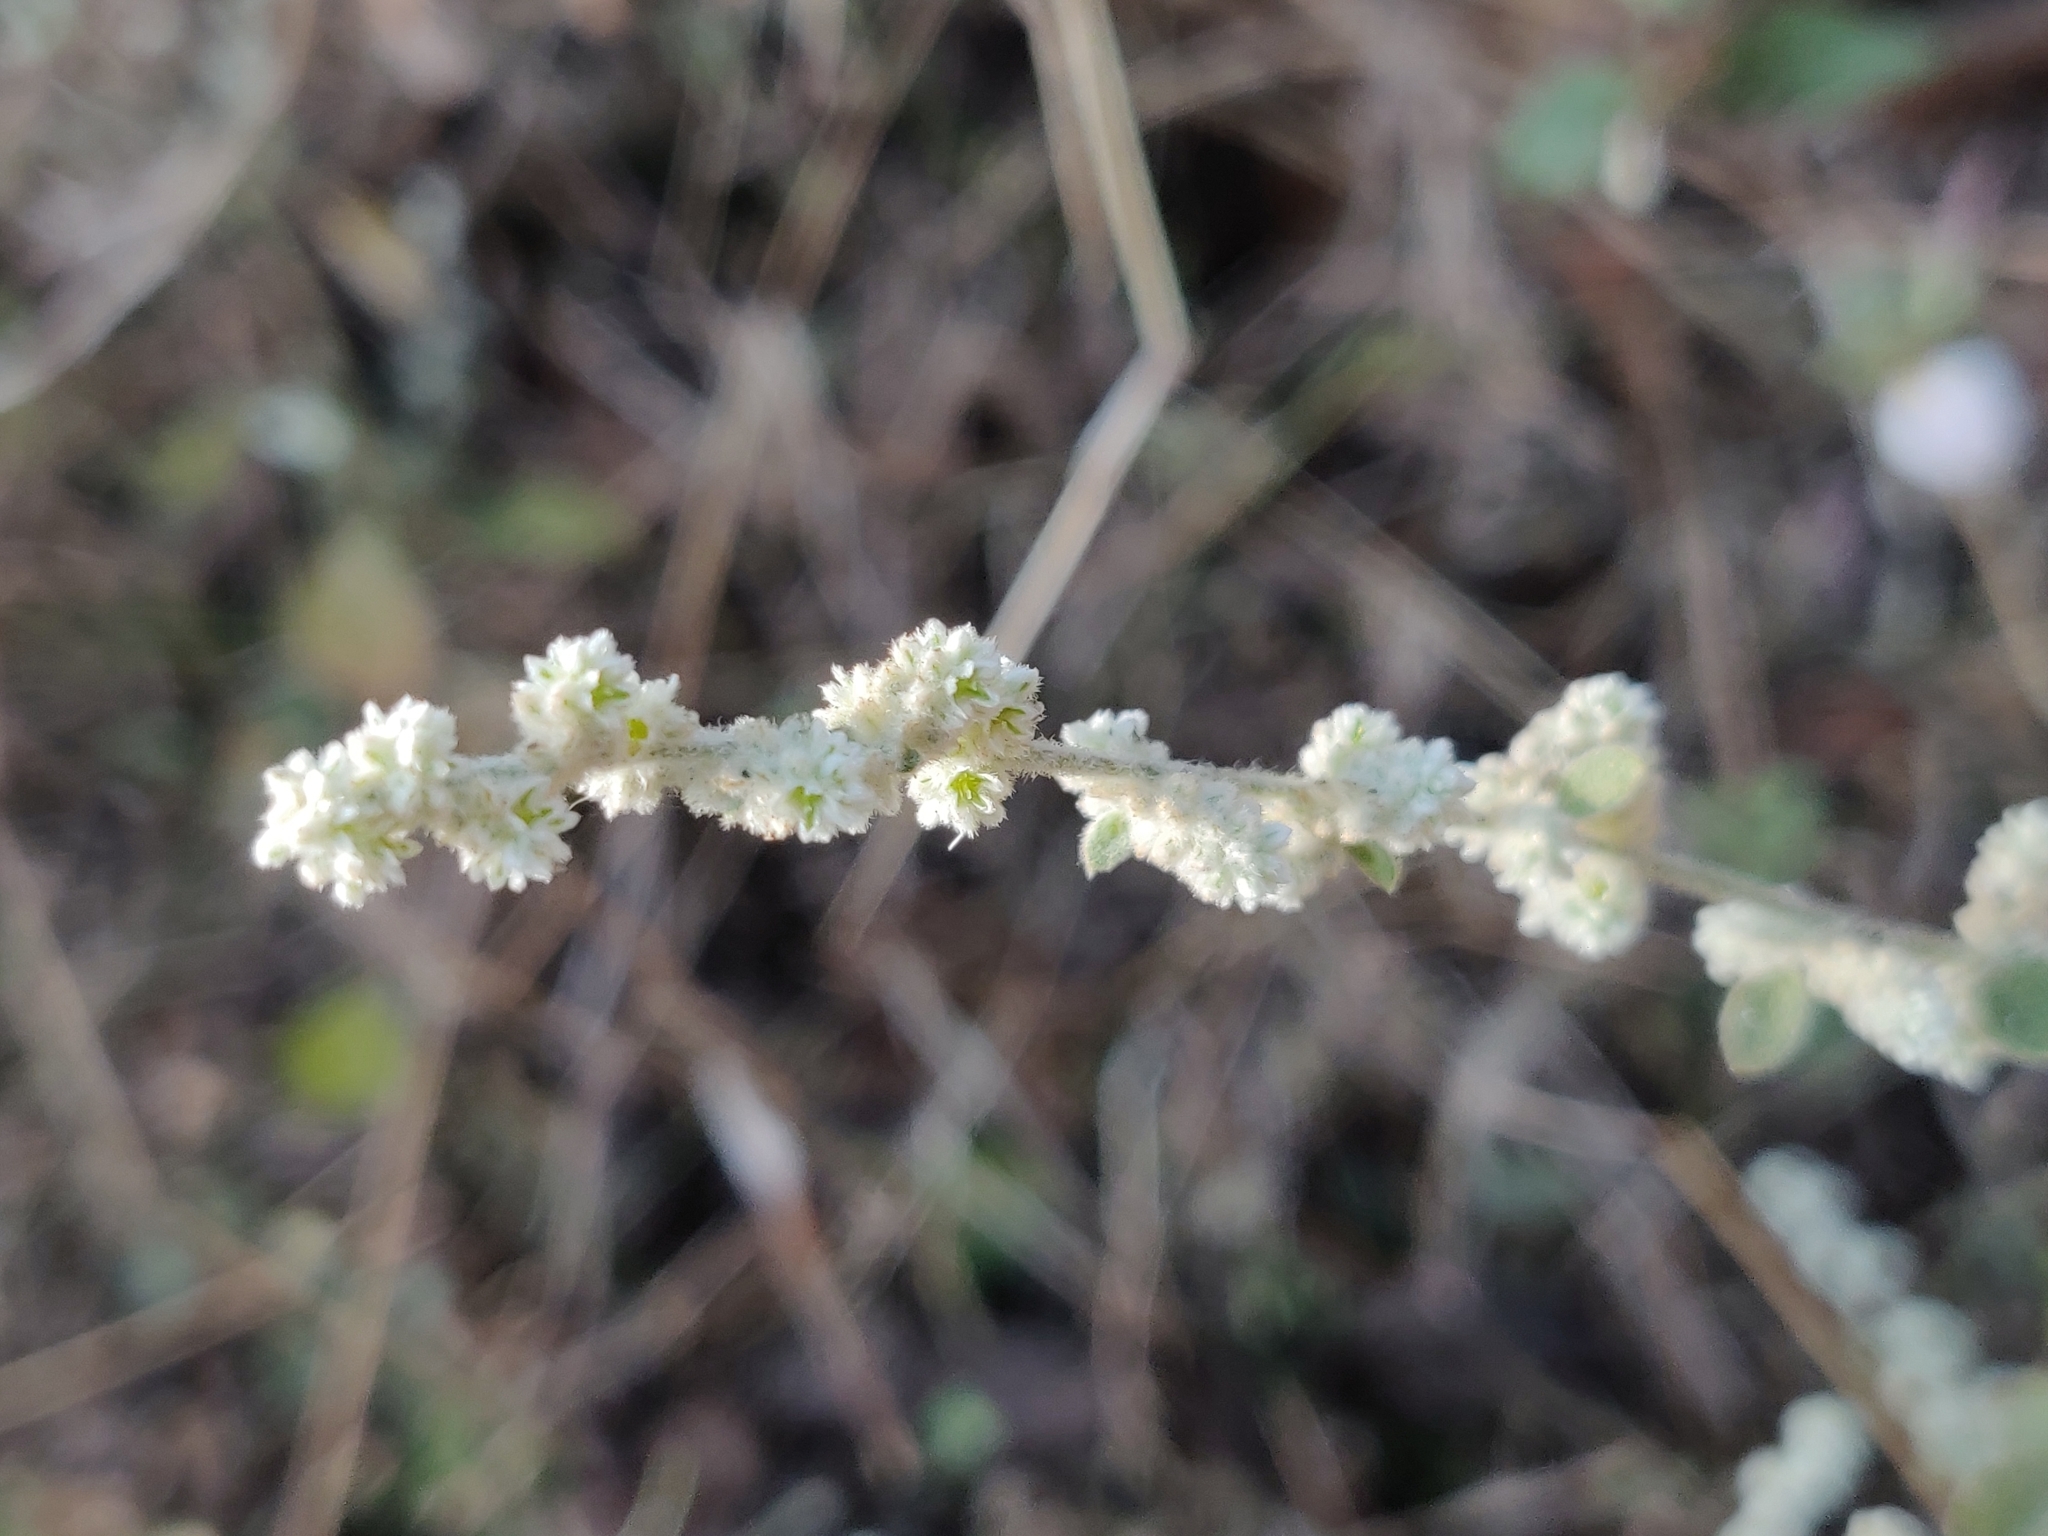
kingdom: Plantae
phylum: Tracheophyta
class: Magnoliopsida
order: Caryophyllales
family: Amaranthaceae
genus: Ouret
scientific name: Ouret lanata
